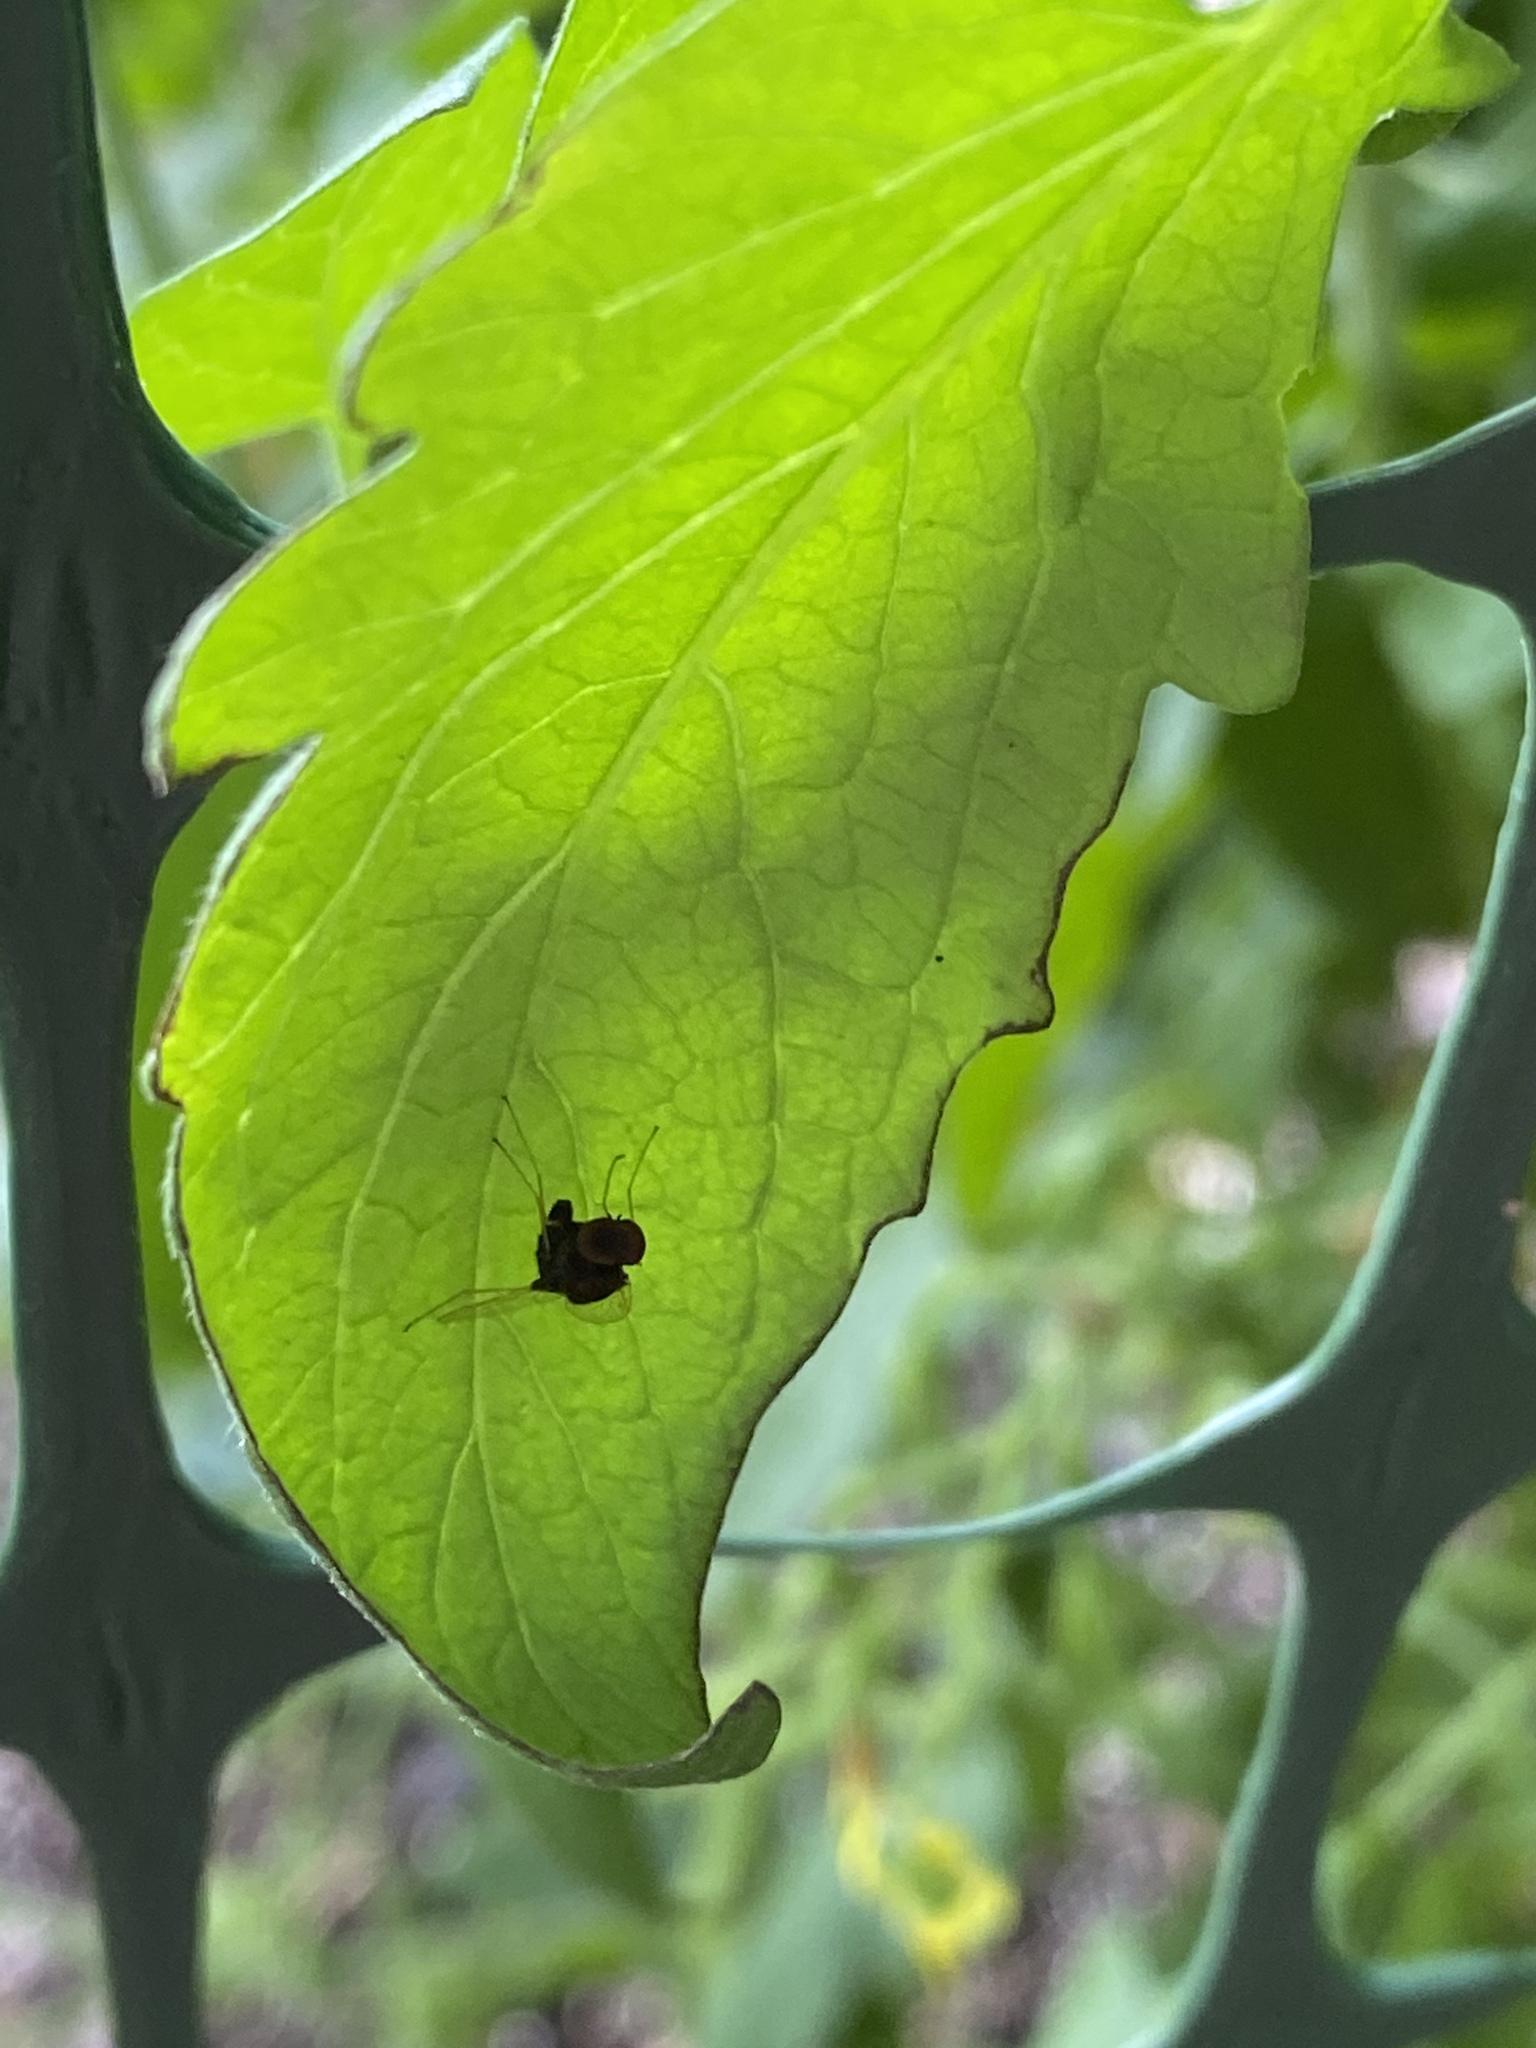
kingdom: Animalia
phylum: Arthropoda
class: Insecta
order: Diptera
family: Rhagionidae
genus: Chrysopilus
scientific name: Chrysopilus basilaris
